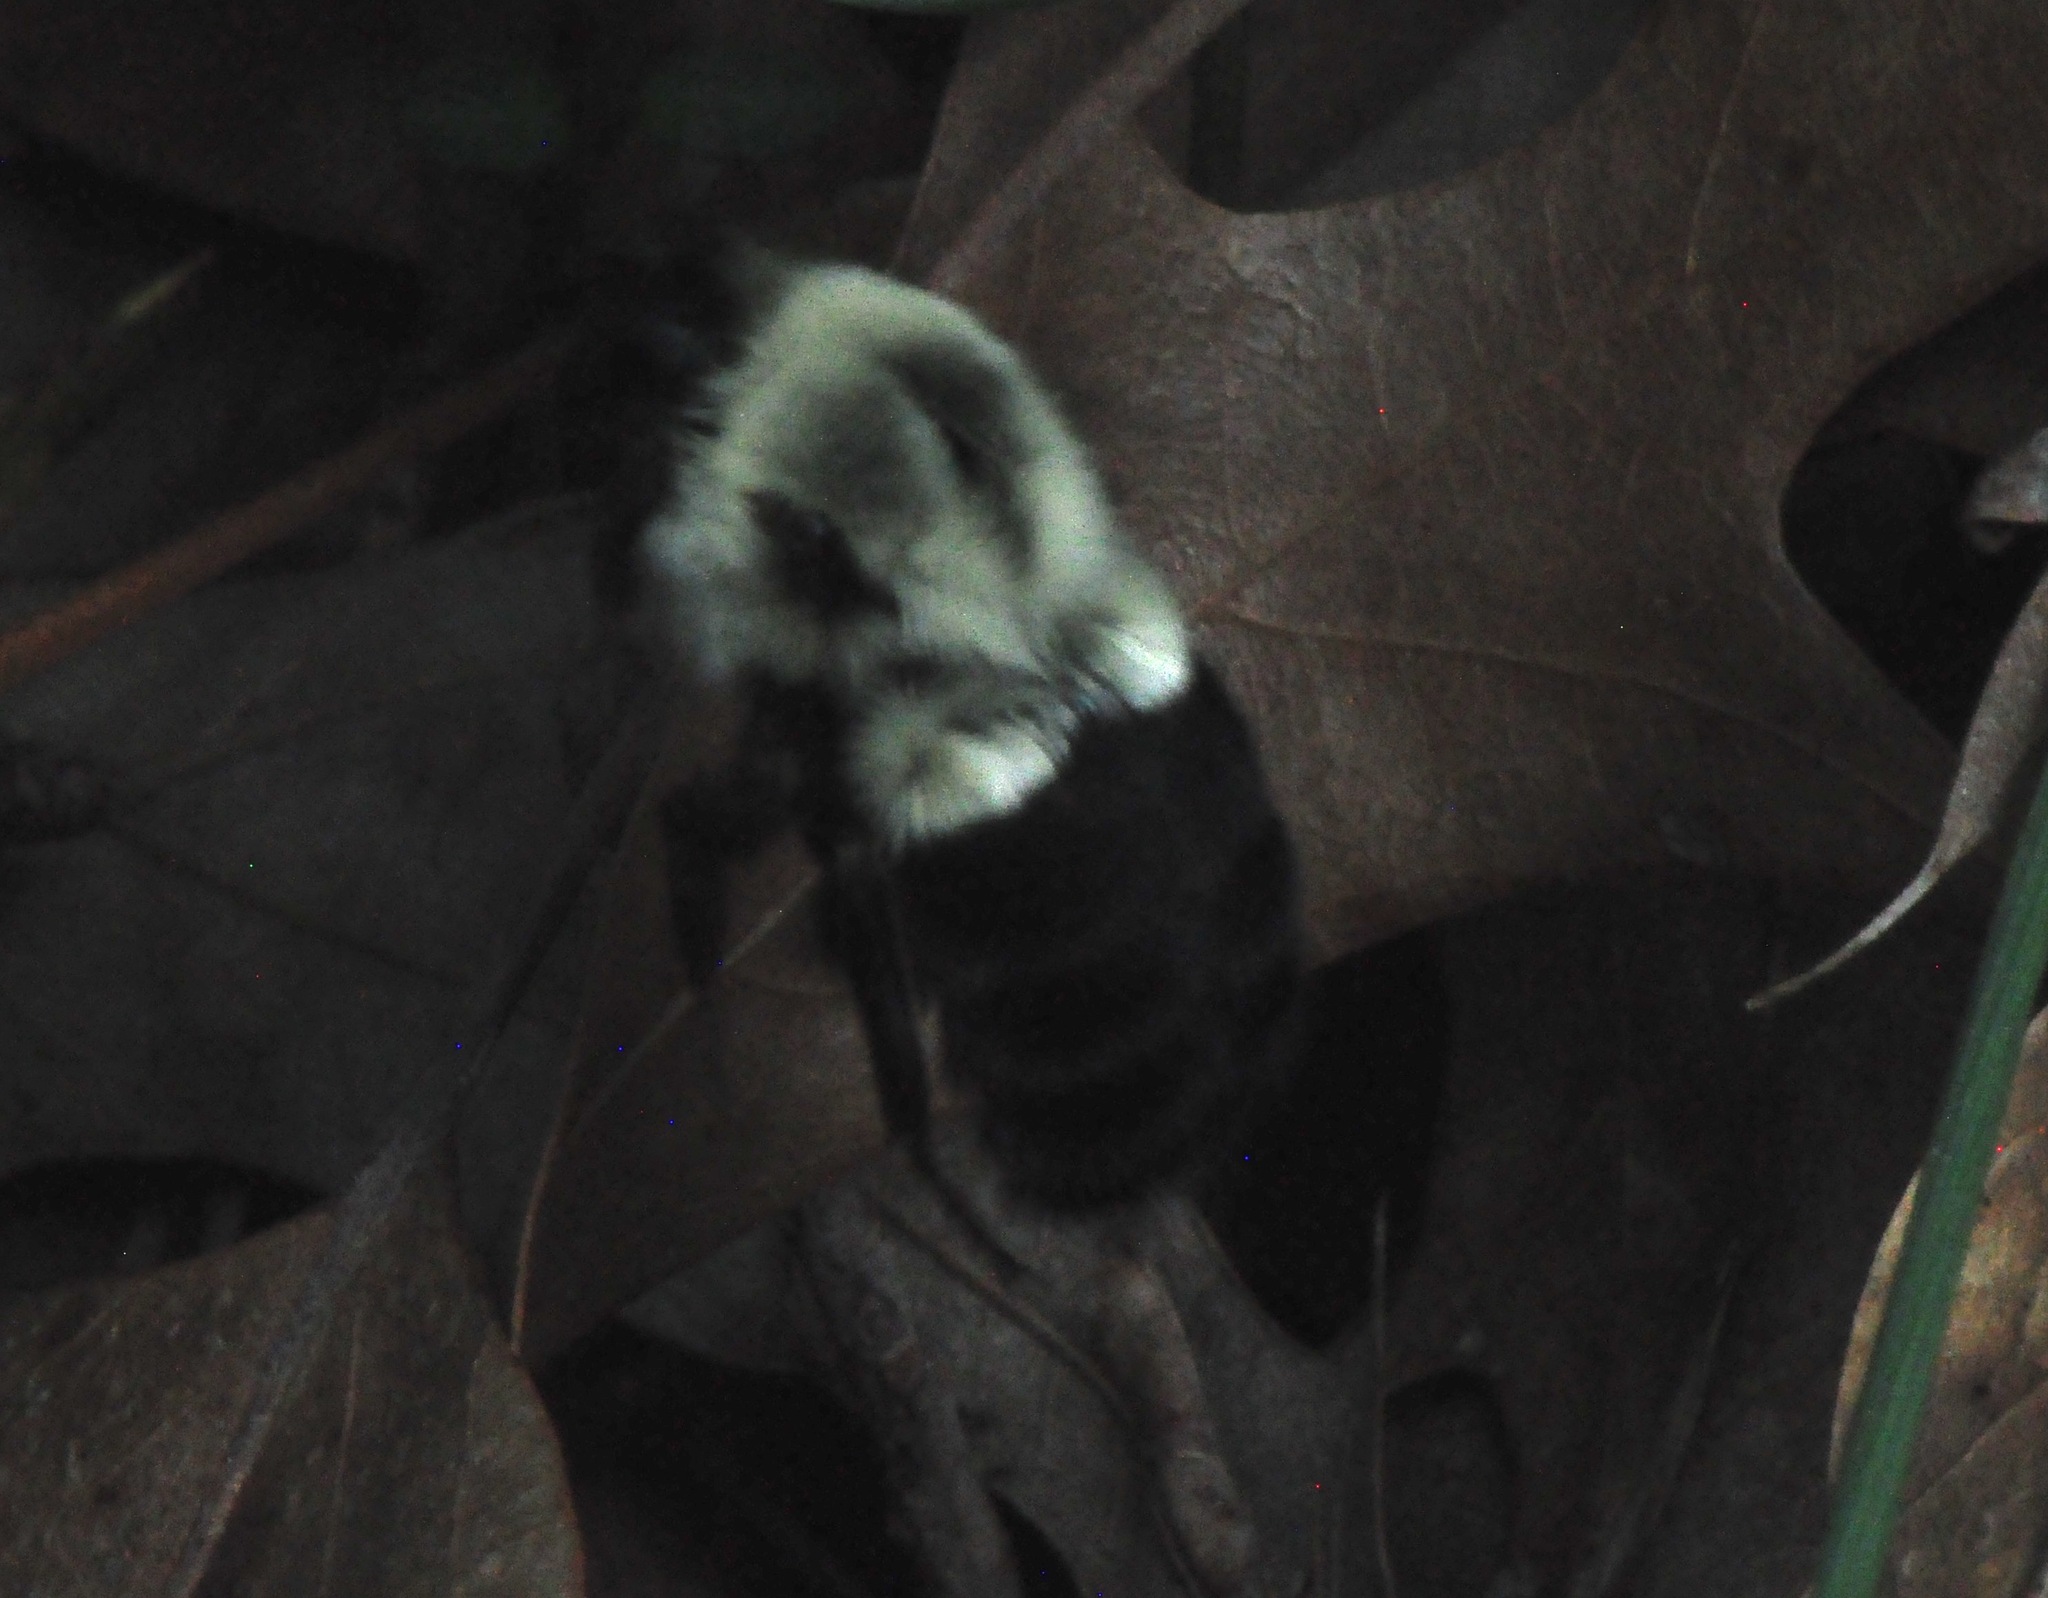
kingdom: Animalia
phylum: Arthropoda
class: Insecta
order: Hymenoptera
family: Apidae
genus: Bombus
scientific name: Bombus impatiens
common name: Common eastern bumble bee
